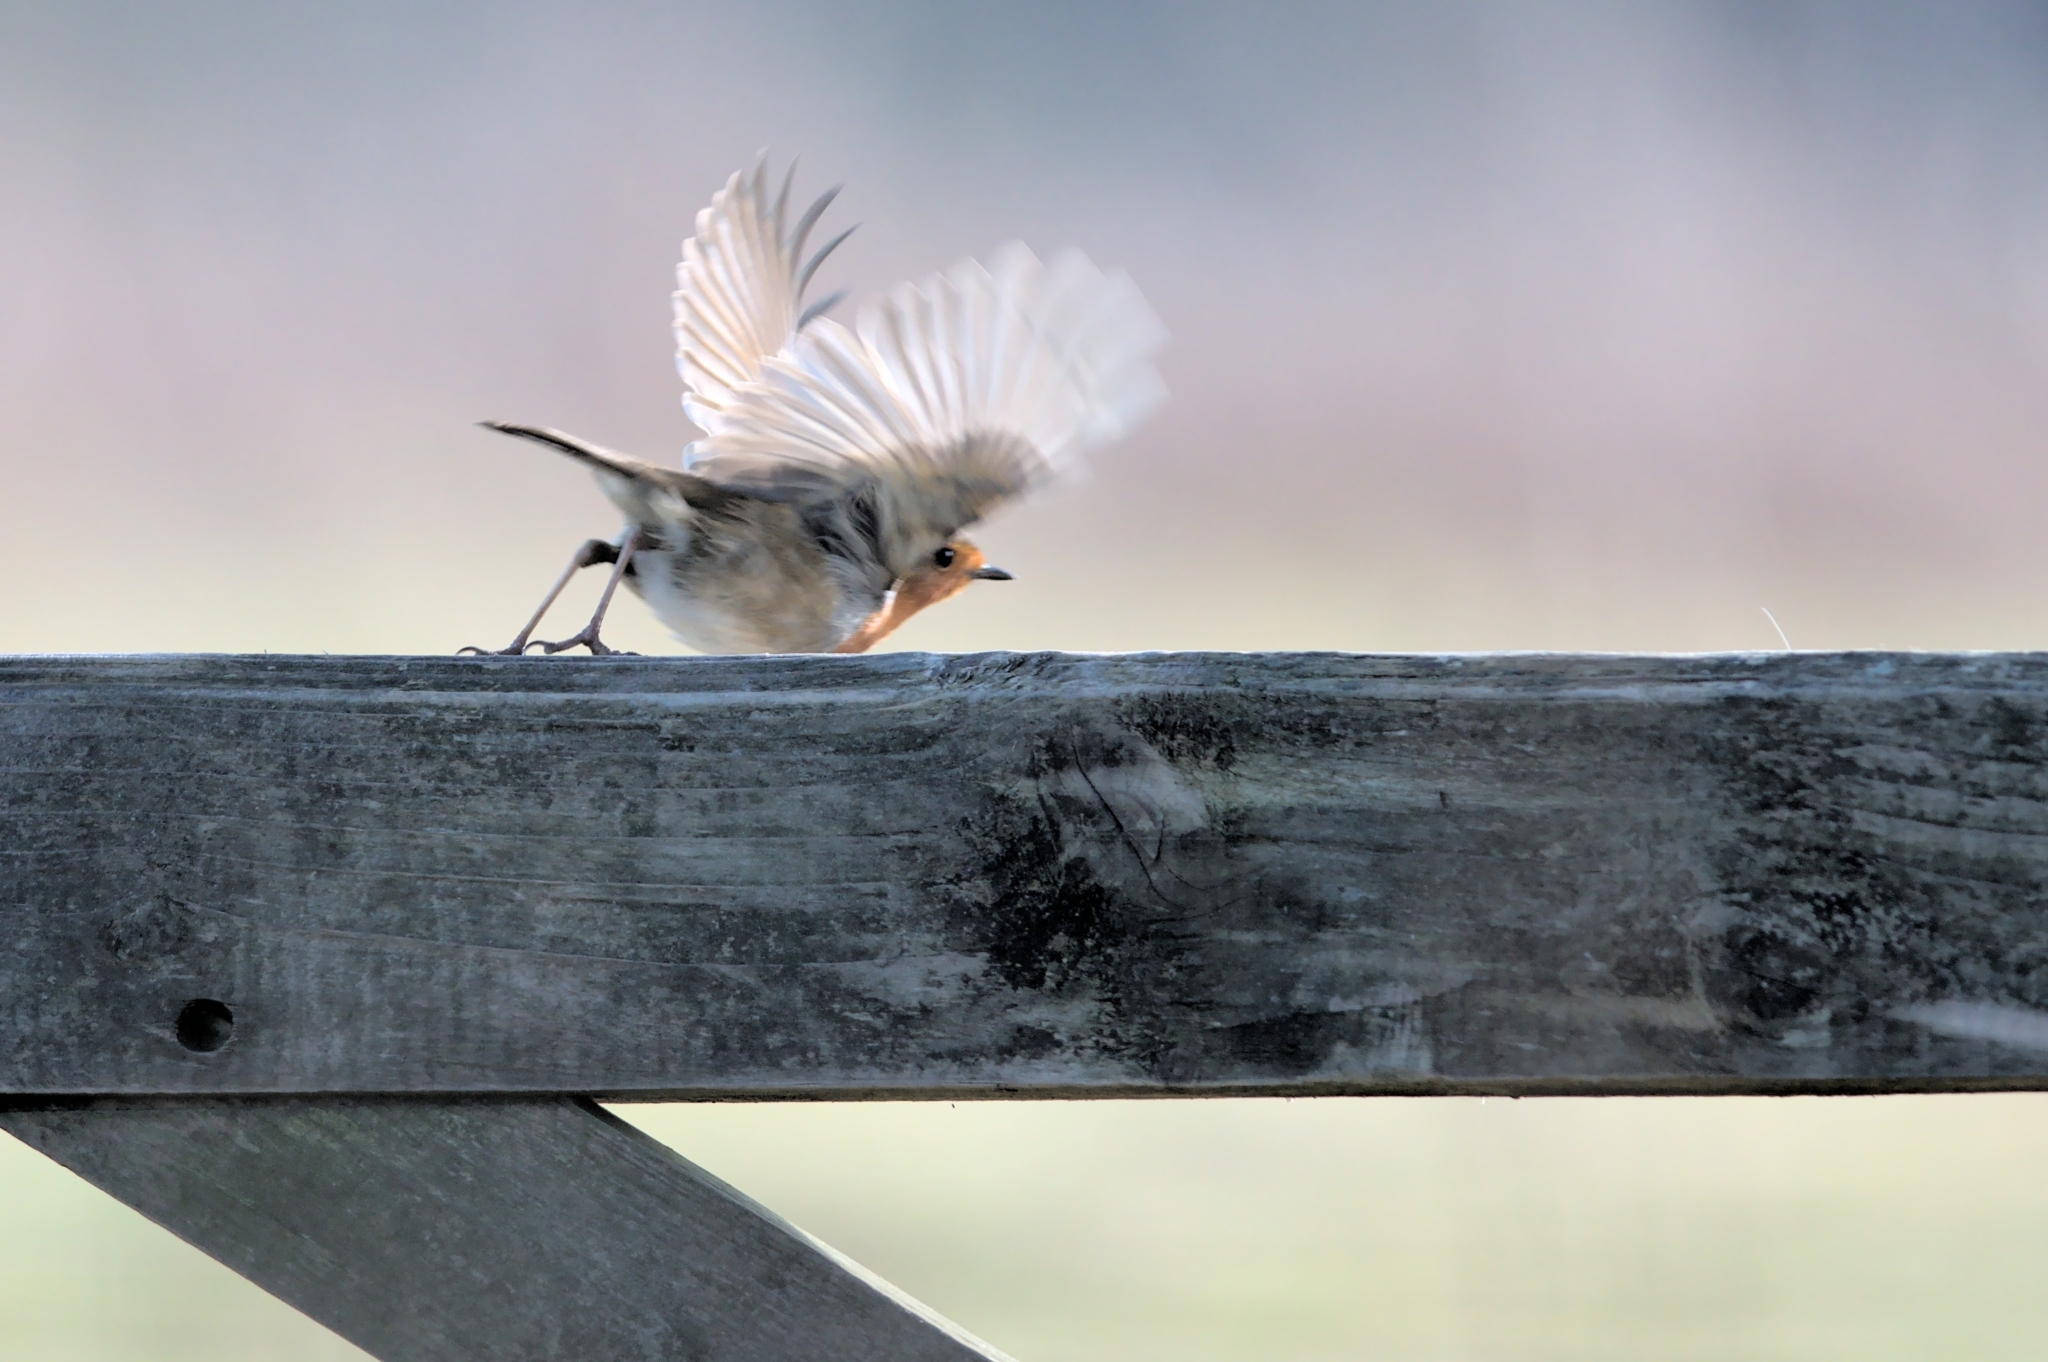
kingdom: Animalia
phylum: Chordata
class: Aves
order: Passeriformes
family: Muscicapidae
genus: Erithacus
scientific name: Erithacus rubecula
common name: European robin
